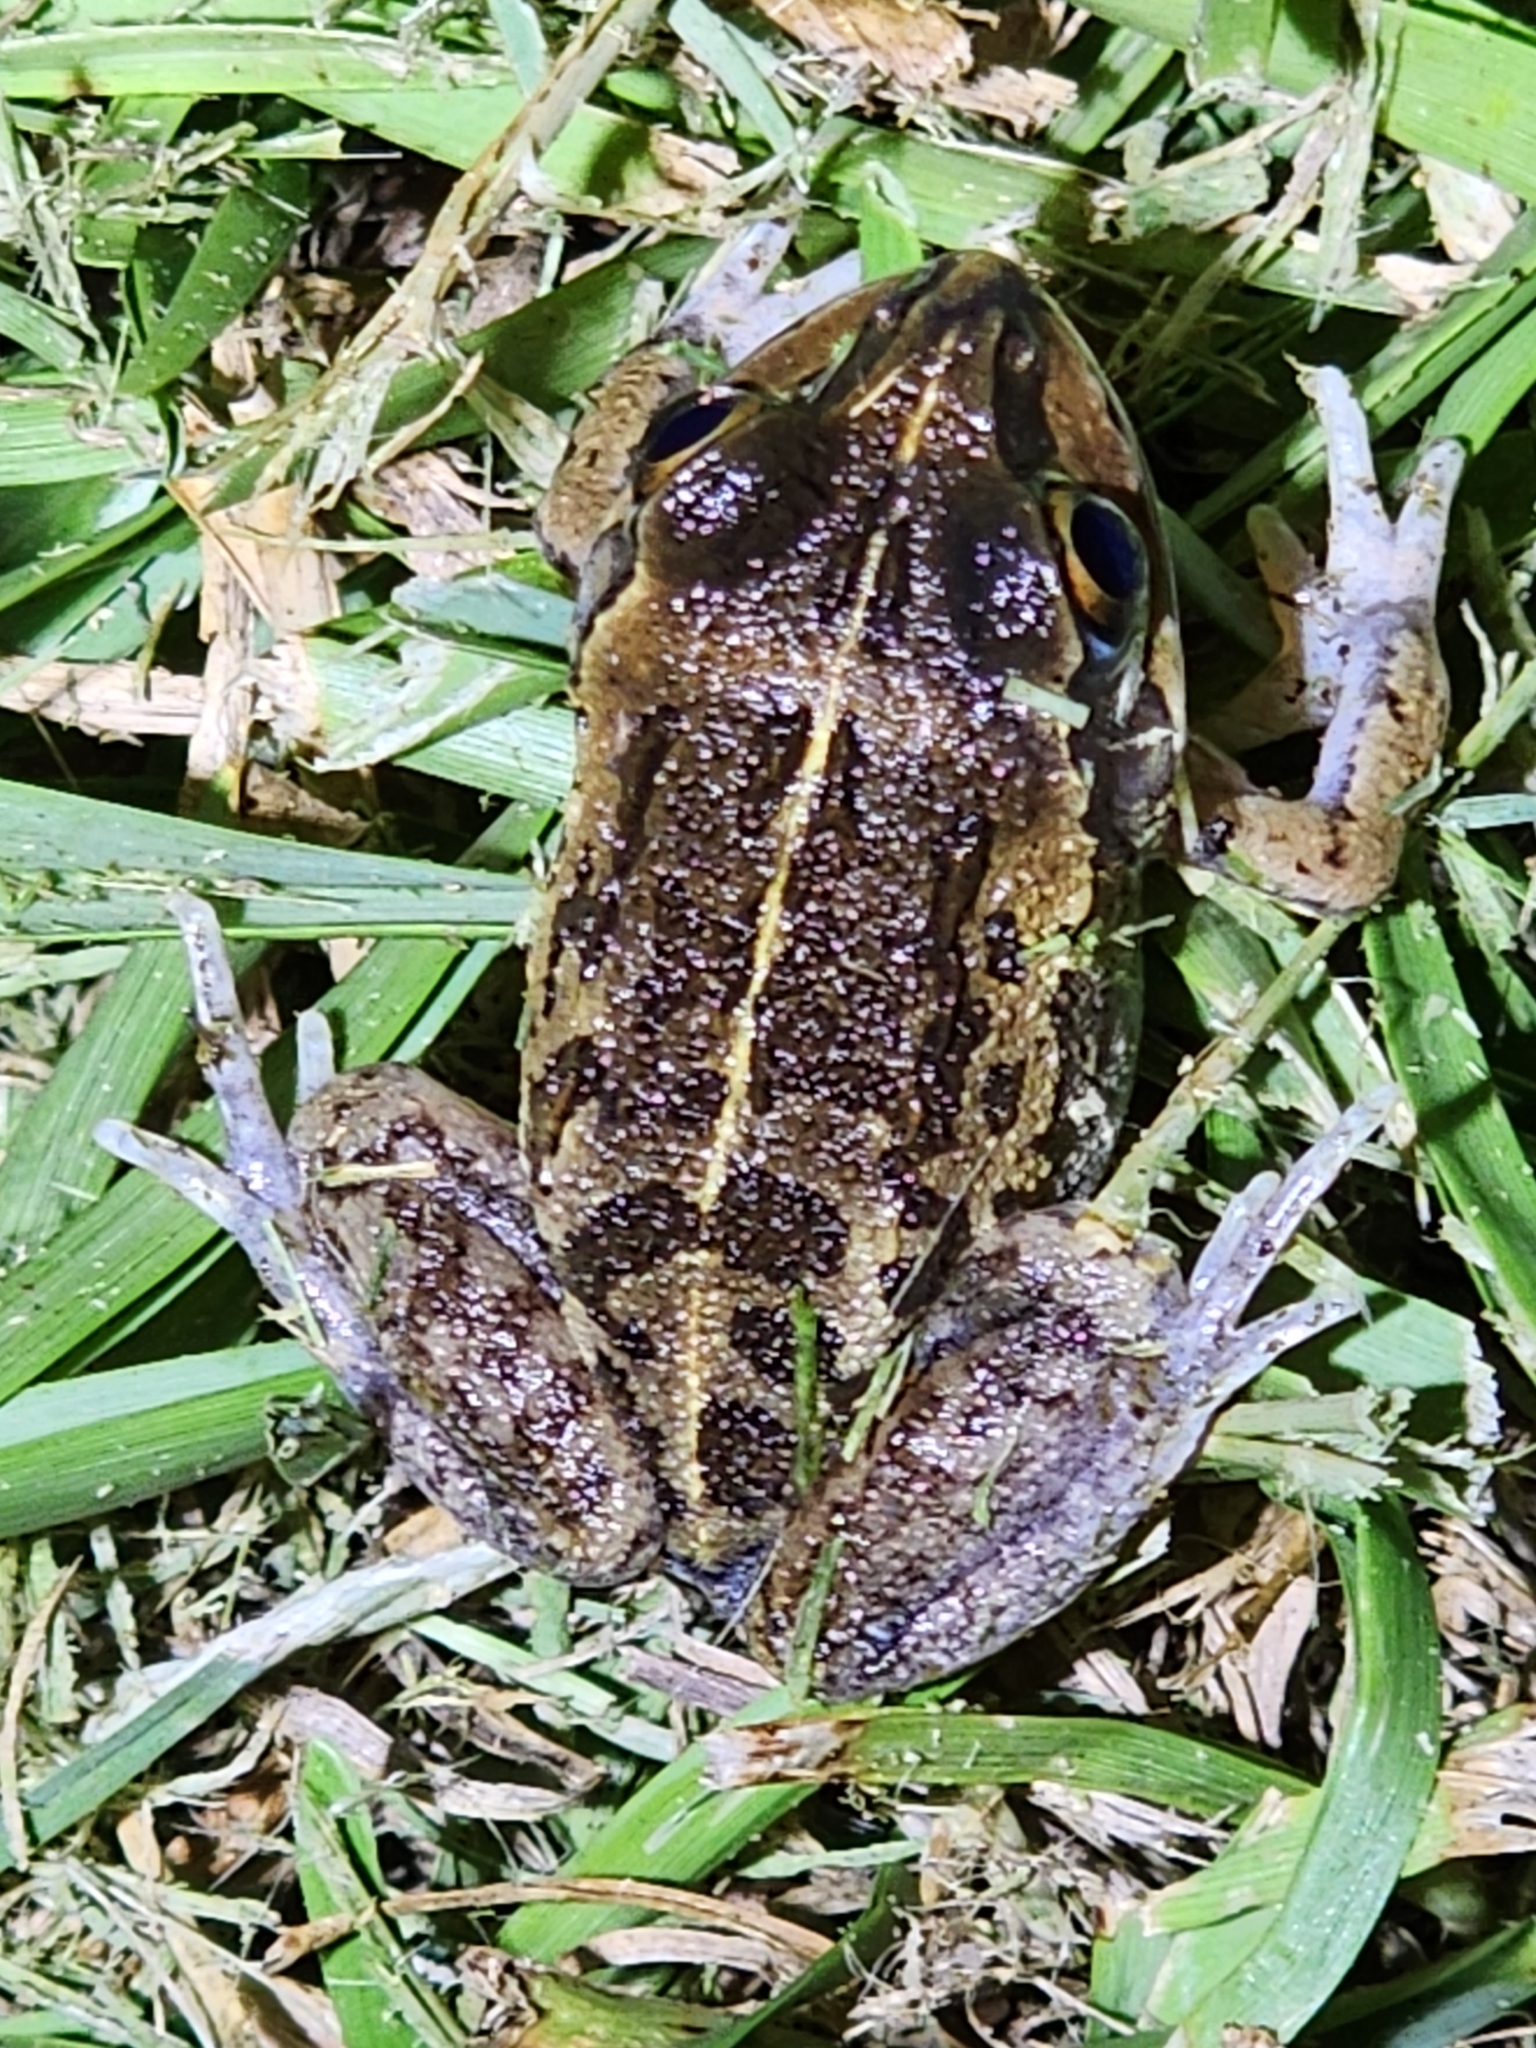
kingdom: Animalia
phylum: Chordata
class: Amphibia
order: Anura
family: Pelodryadidae
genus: Ranoidea
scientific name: Ranoidea brevipes
